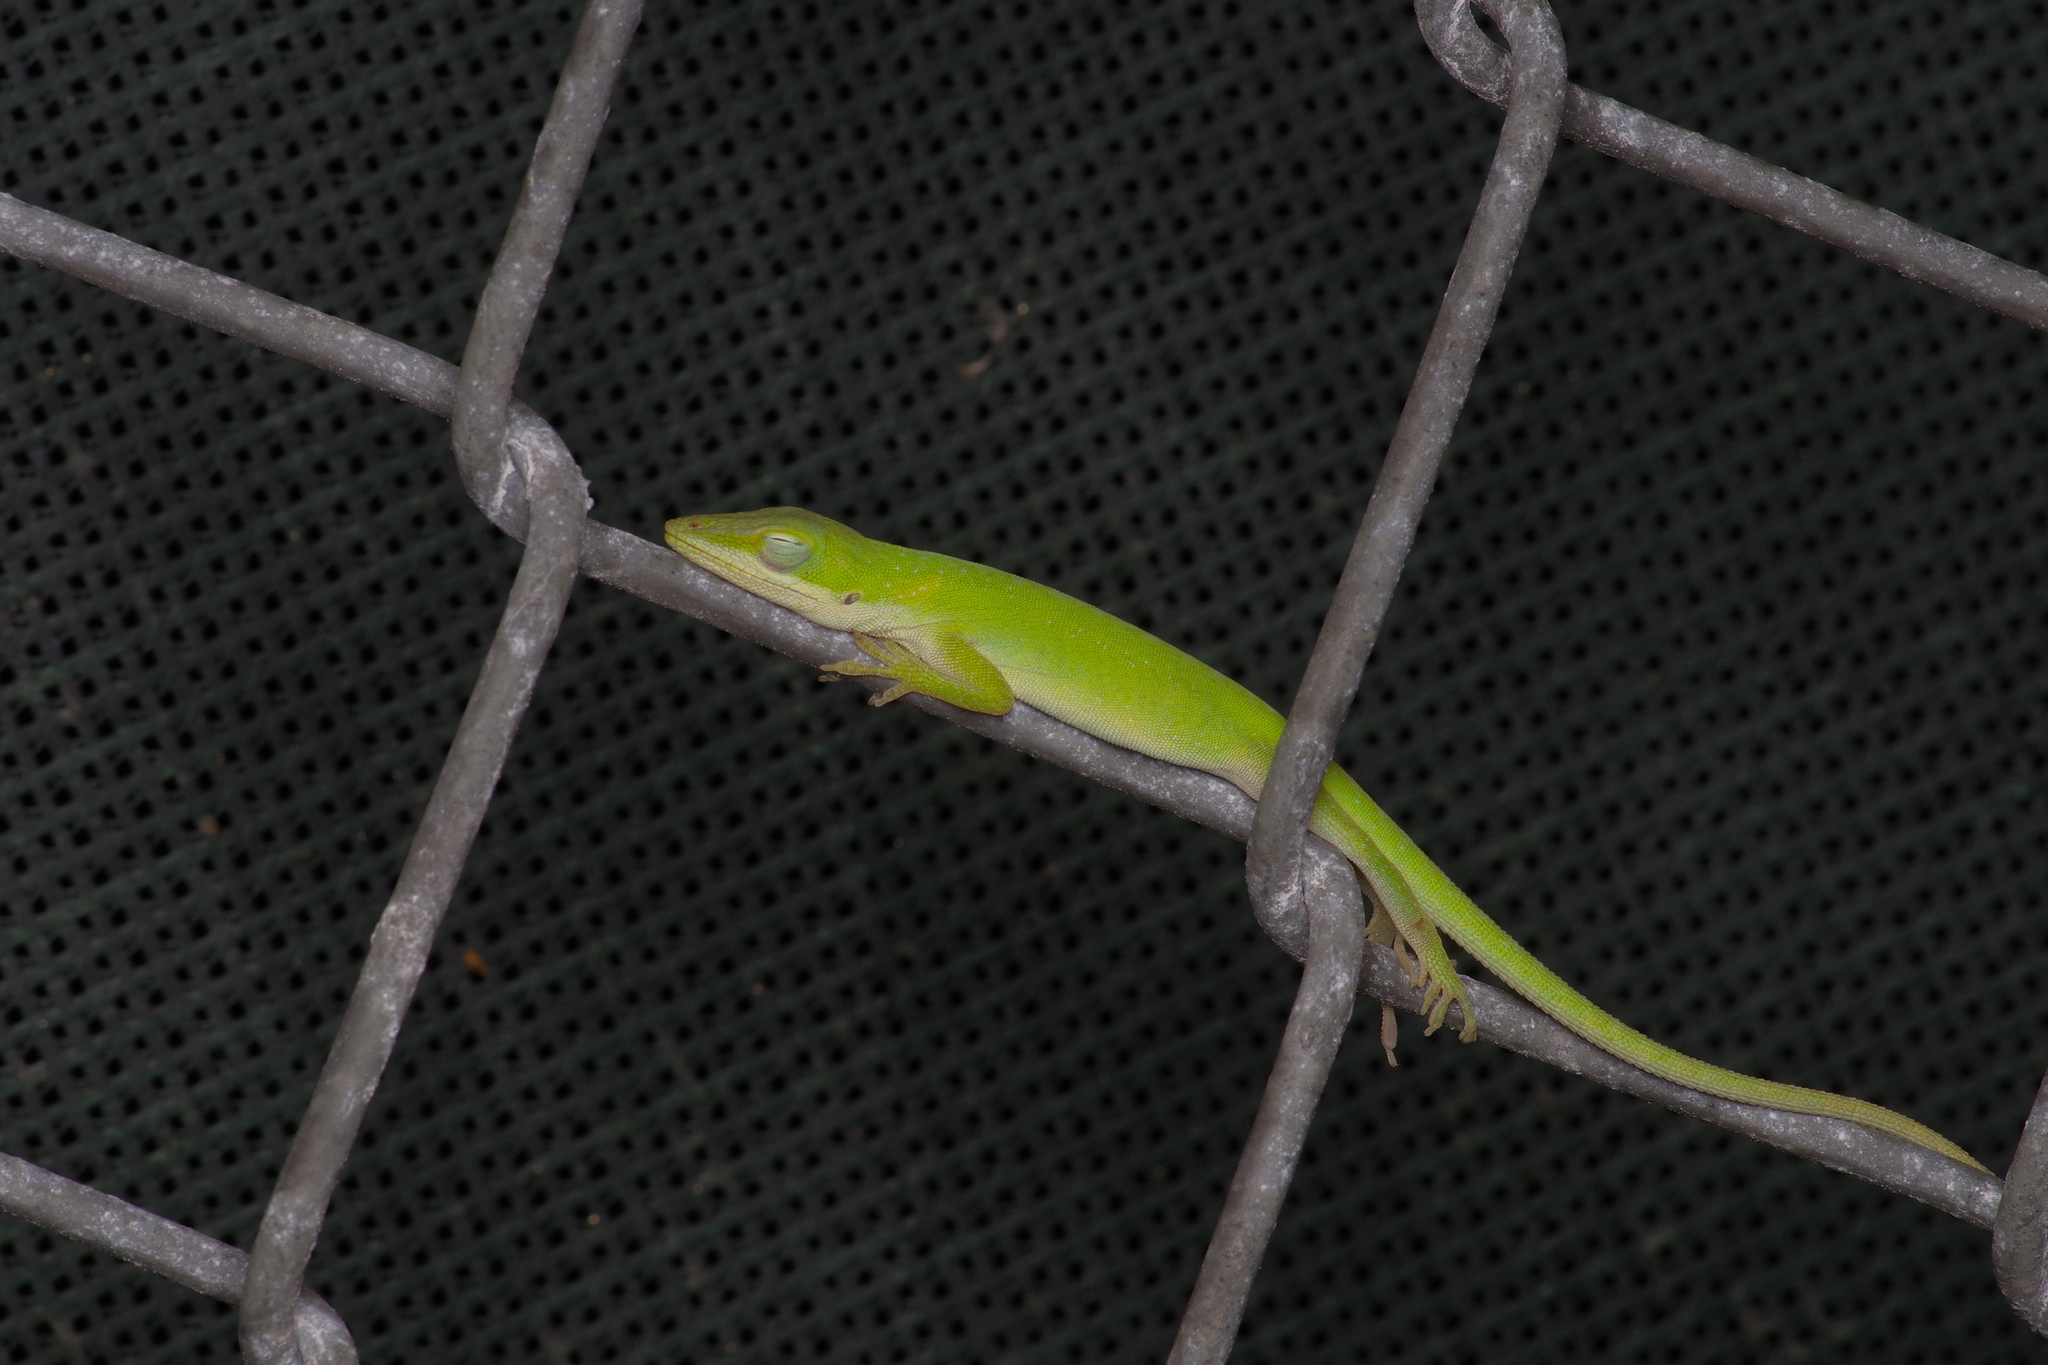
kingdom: Animalia
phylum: Chordata
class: Squamata
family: Dactyloidae
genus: Anolis
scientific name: Anolis carolinensis
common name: Green anole
